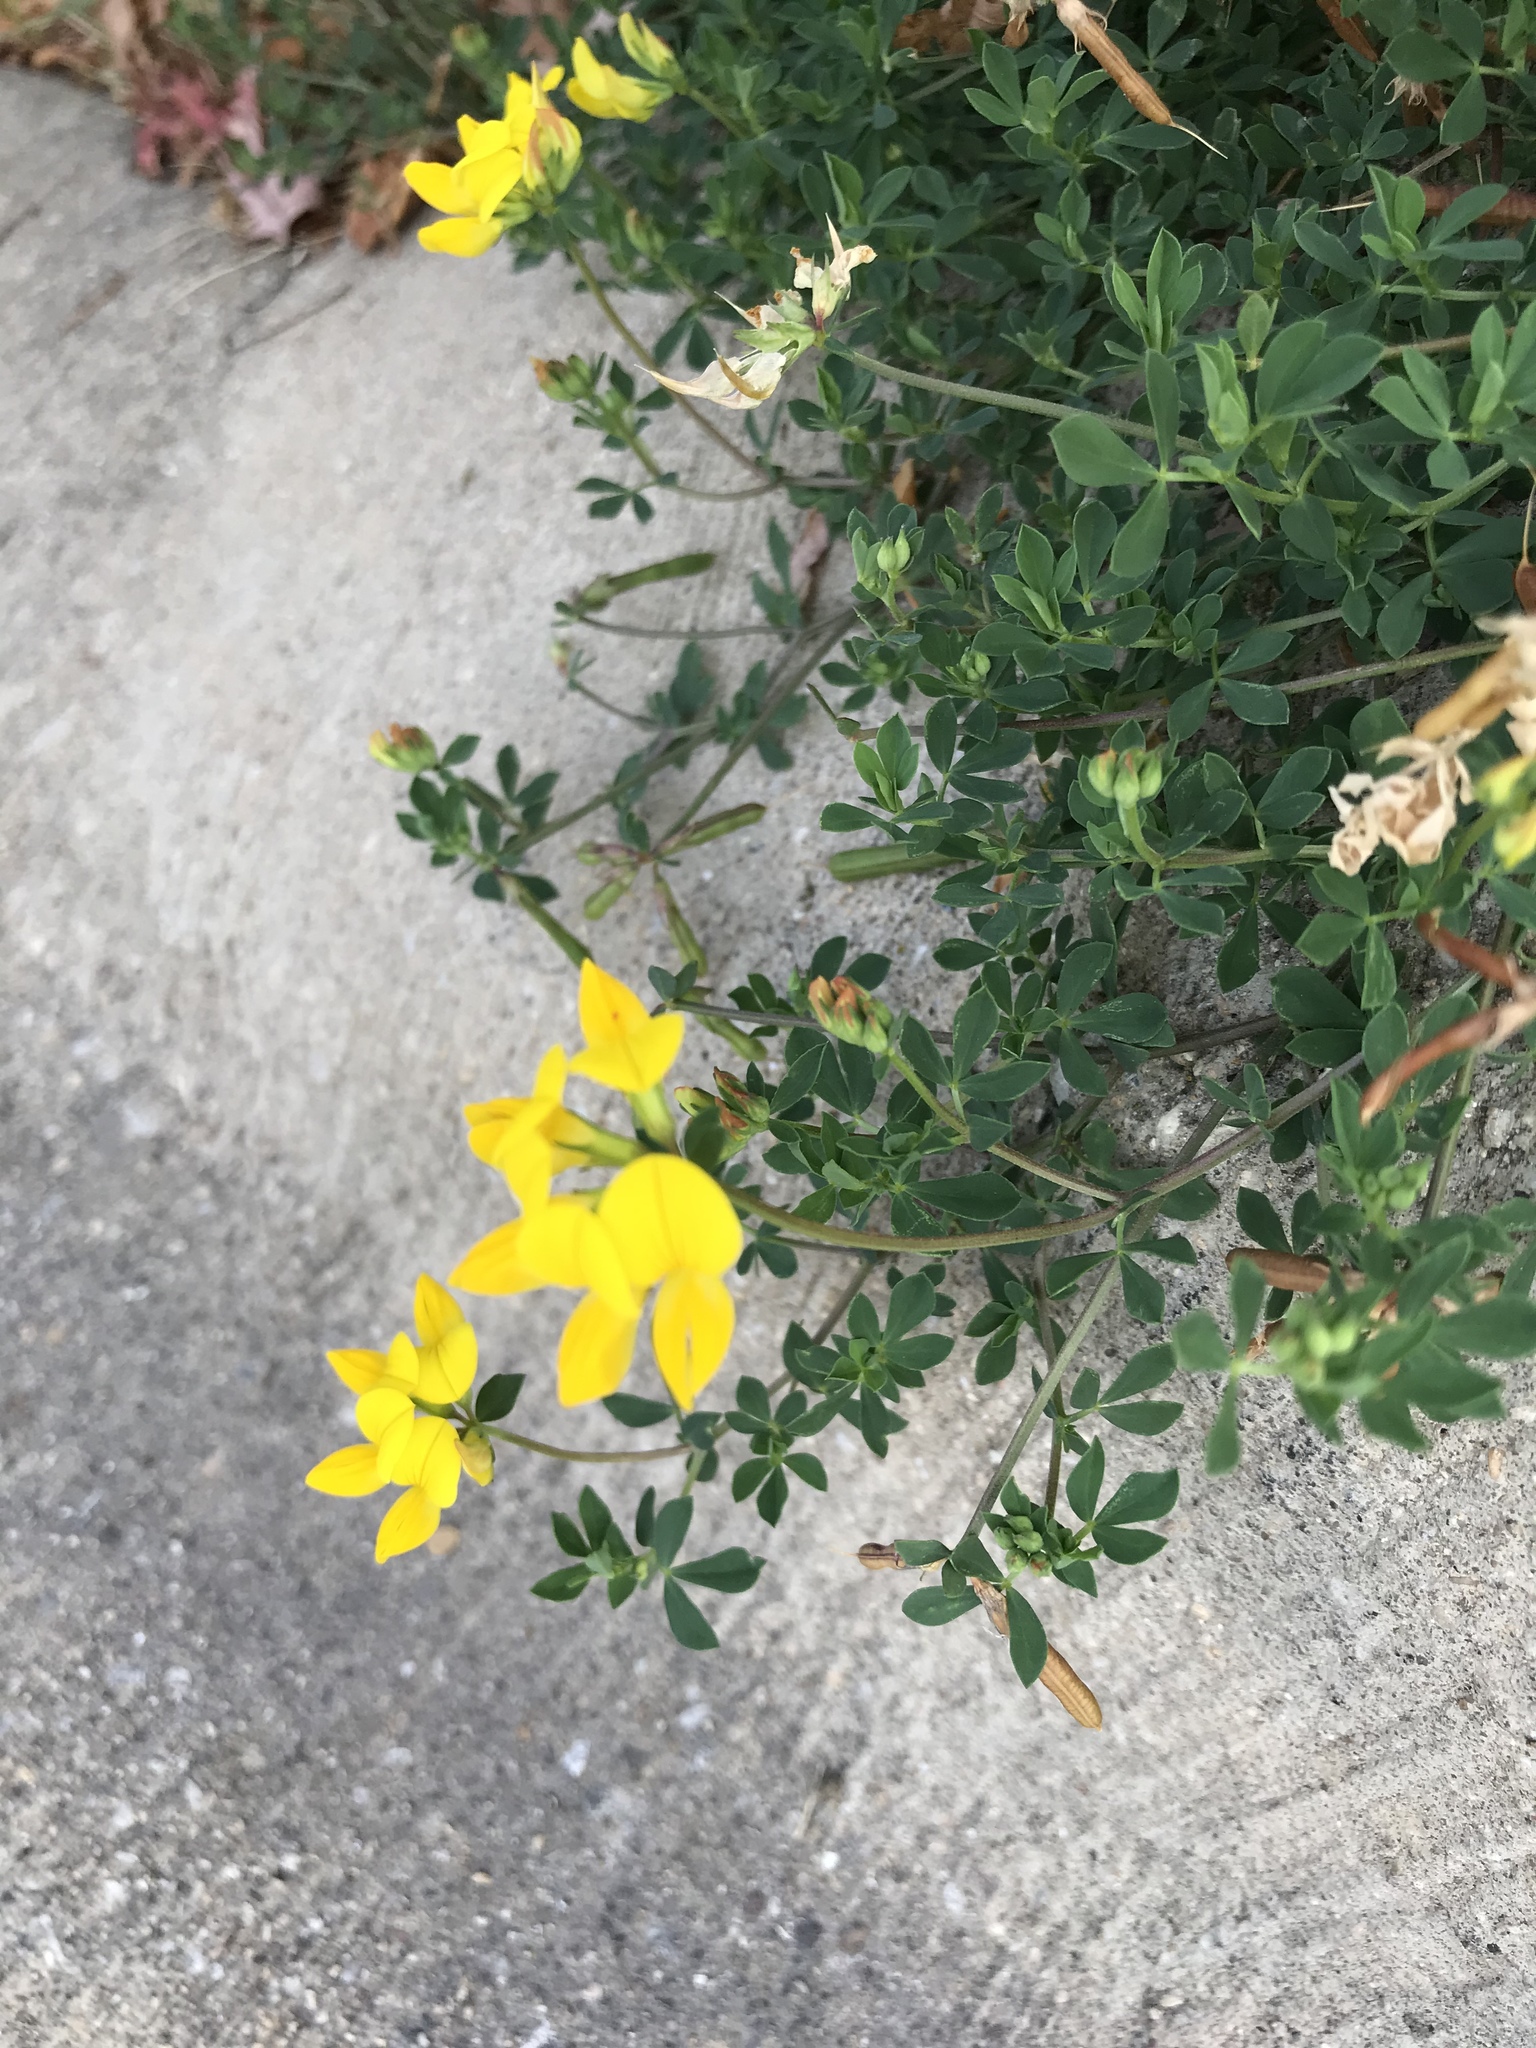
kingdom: Plantae
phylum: Tracheophyta
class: Magnoliopsida
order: Fabales
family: Fabaceae
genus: Lotus
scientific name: Lotus corniculatus
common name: Common bird's-foot-trefoil
